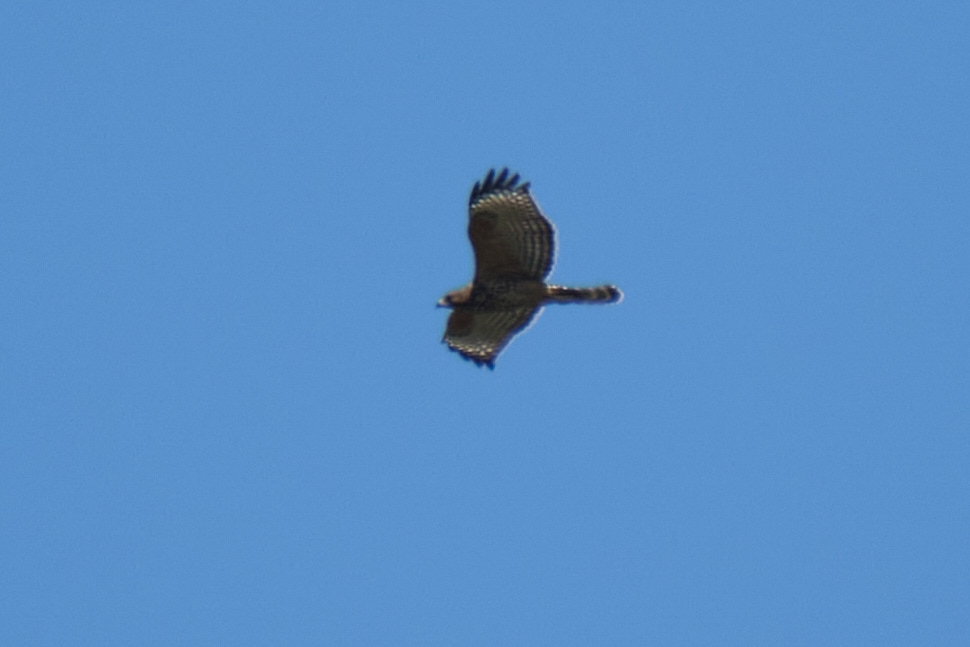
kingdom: Animalia
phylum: Chordata
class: Aves
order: Accipitriformes
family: Accipitridae
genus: Buteo
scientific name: Buteo lineatus
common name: Red-shouldered hawk
